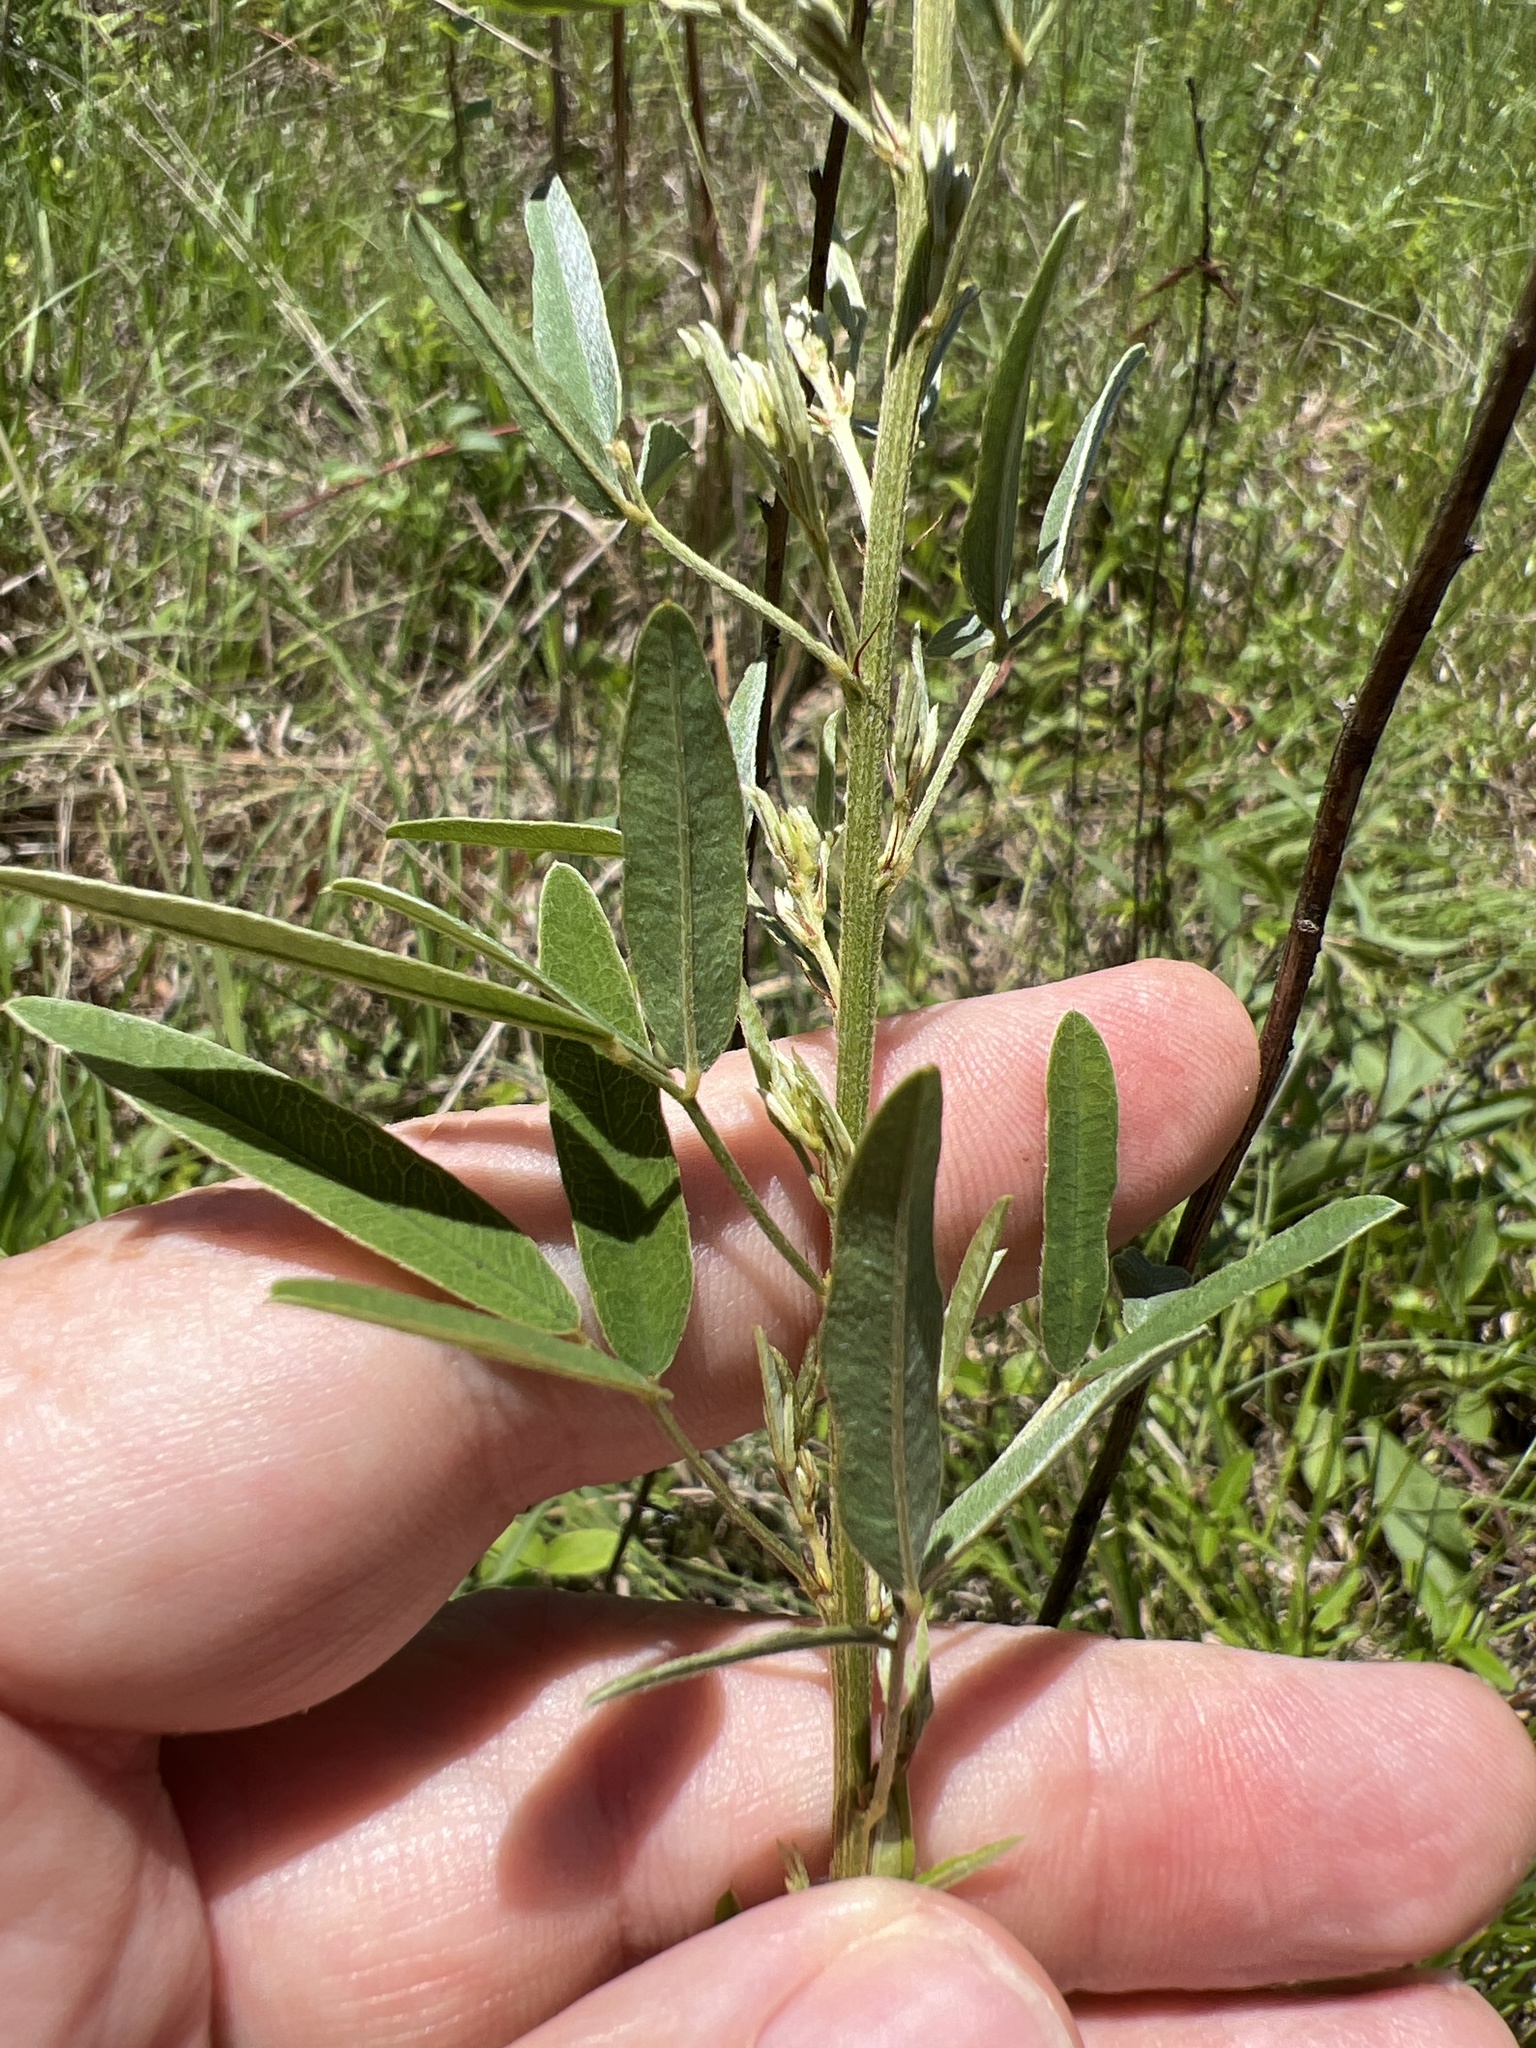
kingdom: Plantae
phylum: Tracheophyta
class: Magnoliopsida
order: Fabales
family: Fabaceae
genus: Lespedeza
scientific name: Lespedeza virginica
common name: Slender bush-clover
